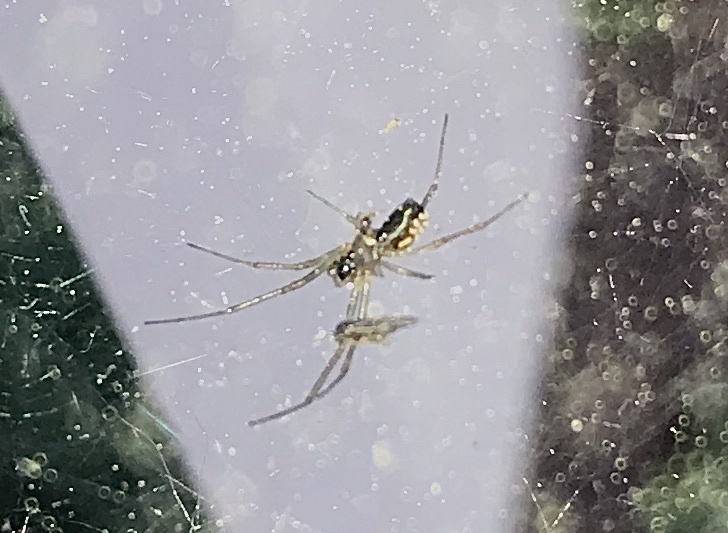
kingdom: Animalia
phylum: Arthropoda
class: Arachnida
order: Araneae
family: Linyphiidae
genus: Frontinella
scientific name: Frontinella pyramitela
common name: Bowl-and-doily spider
